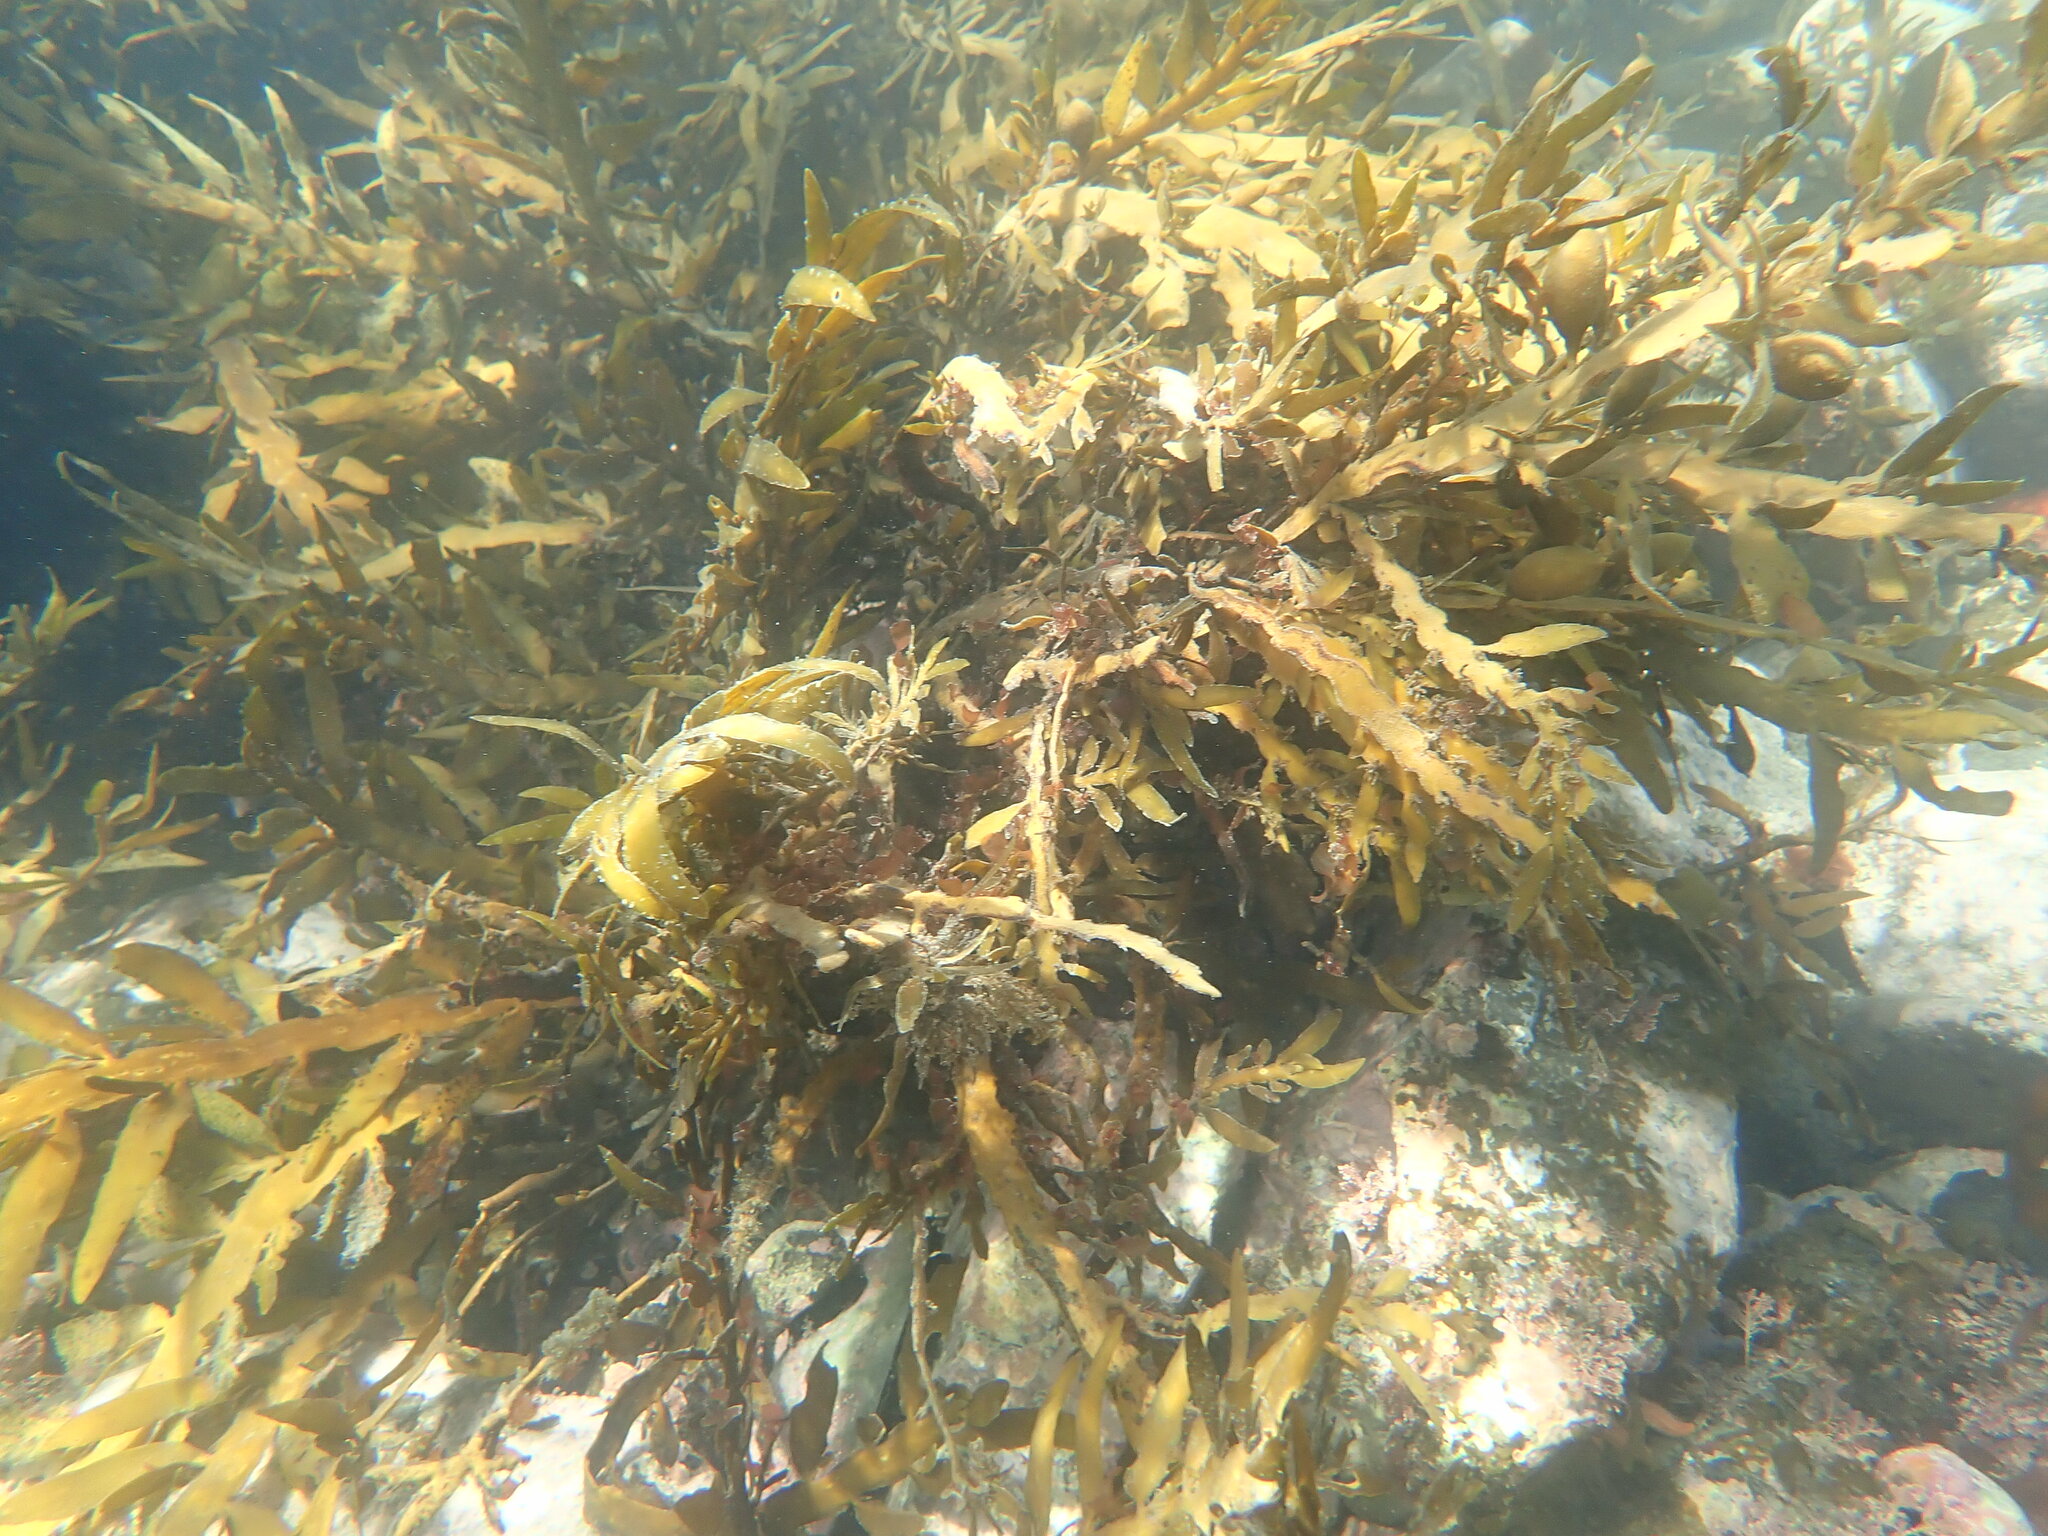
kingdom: Chromista
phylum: Ochrophyta
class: Phaeophyceae
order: Fucales
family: Sargassaceae
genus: Carpophyllum
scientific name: Carpophyllum maschalocarpum
